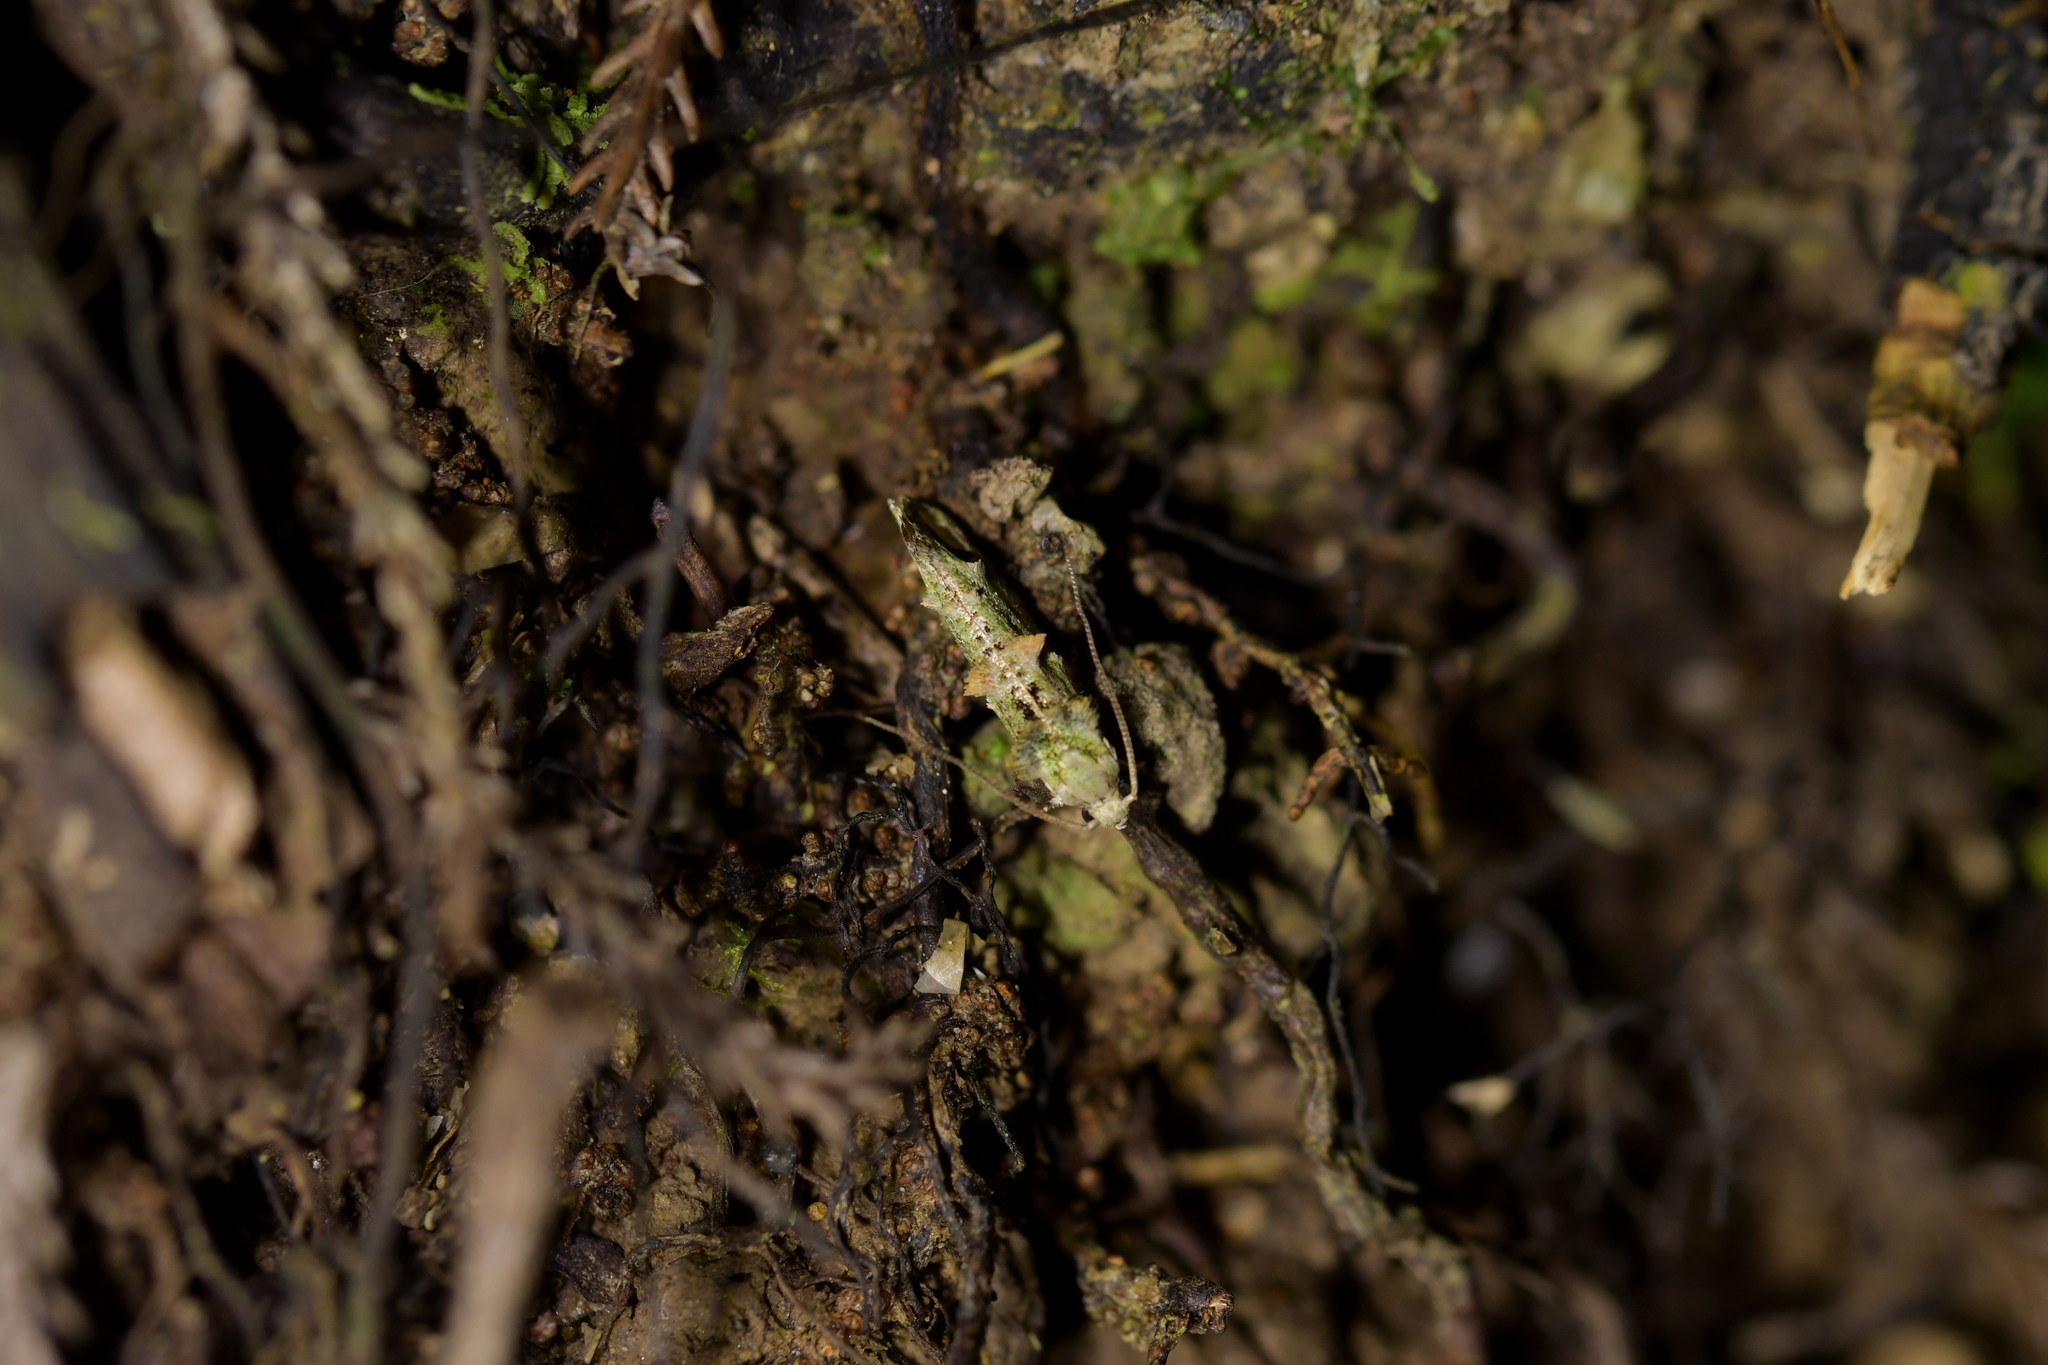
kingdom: Animalia
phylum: Arthropoda
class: Insecta
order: Lepidoptera
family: Tineidae
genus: Lysiphragma
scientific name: Lysiphragma mixochlora
